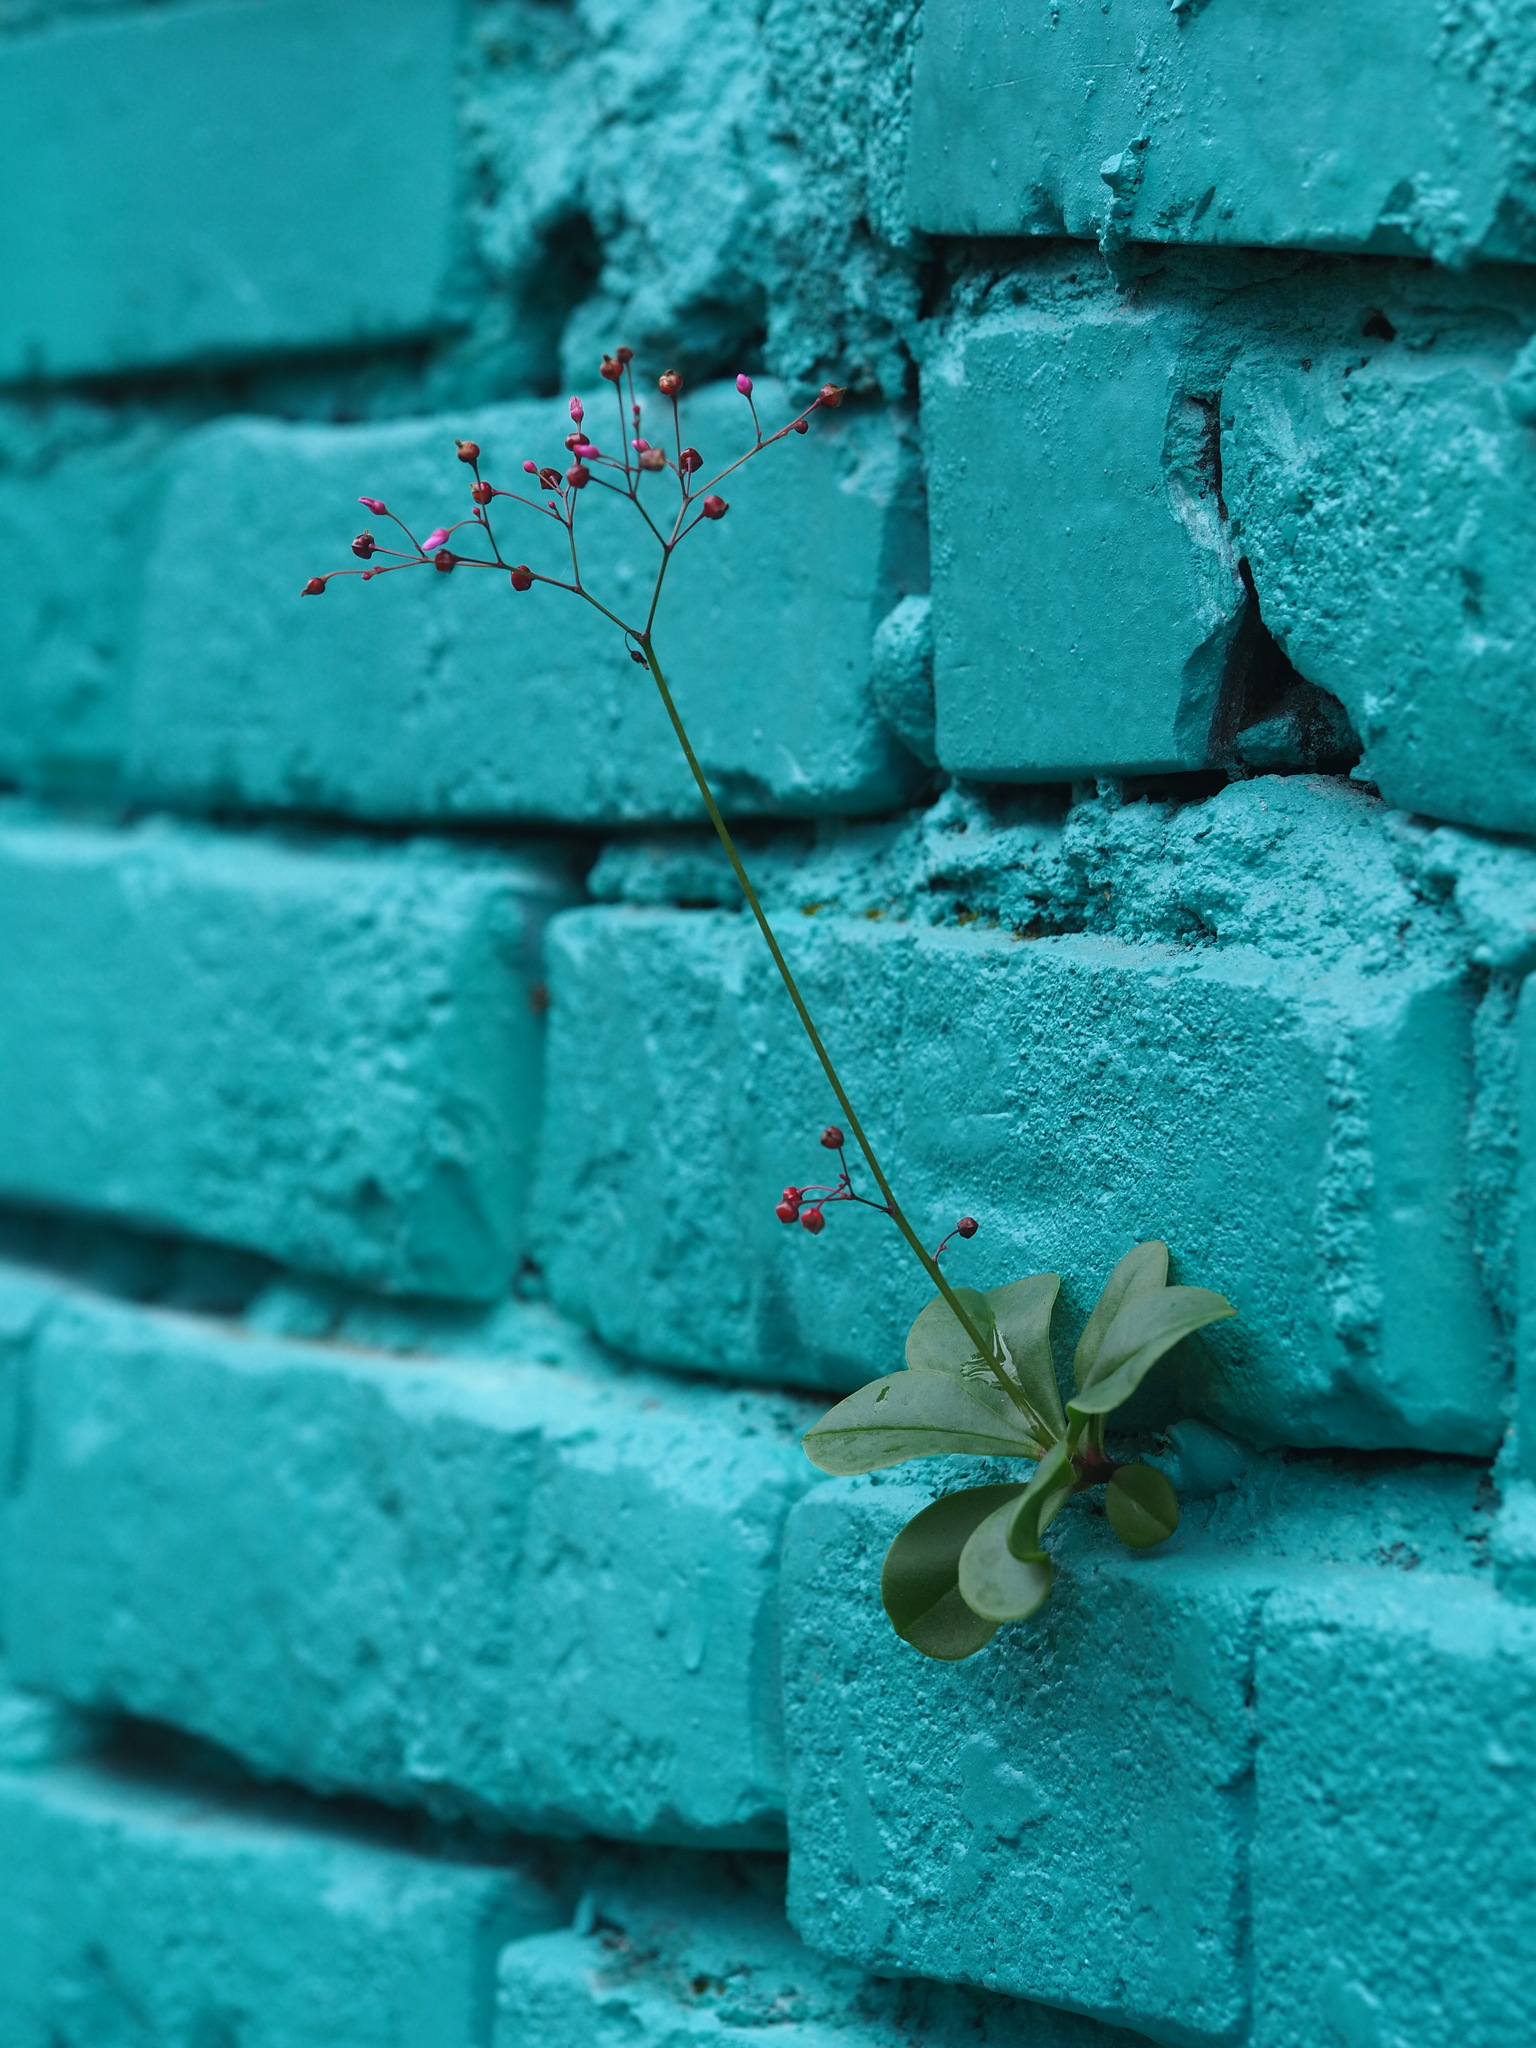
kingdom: Plantae
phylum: Tracheophyta
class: Magnoliopsida
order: Caryophyllales
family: Talinaceae
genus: Talinum
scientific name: Talinum paniculatum
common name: Jewels of opar
